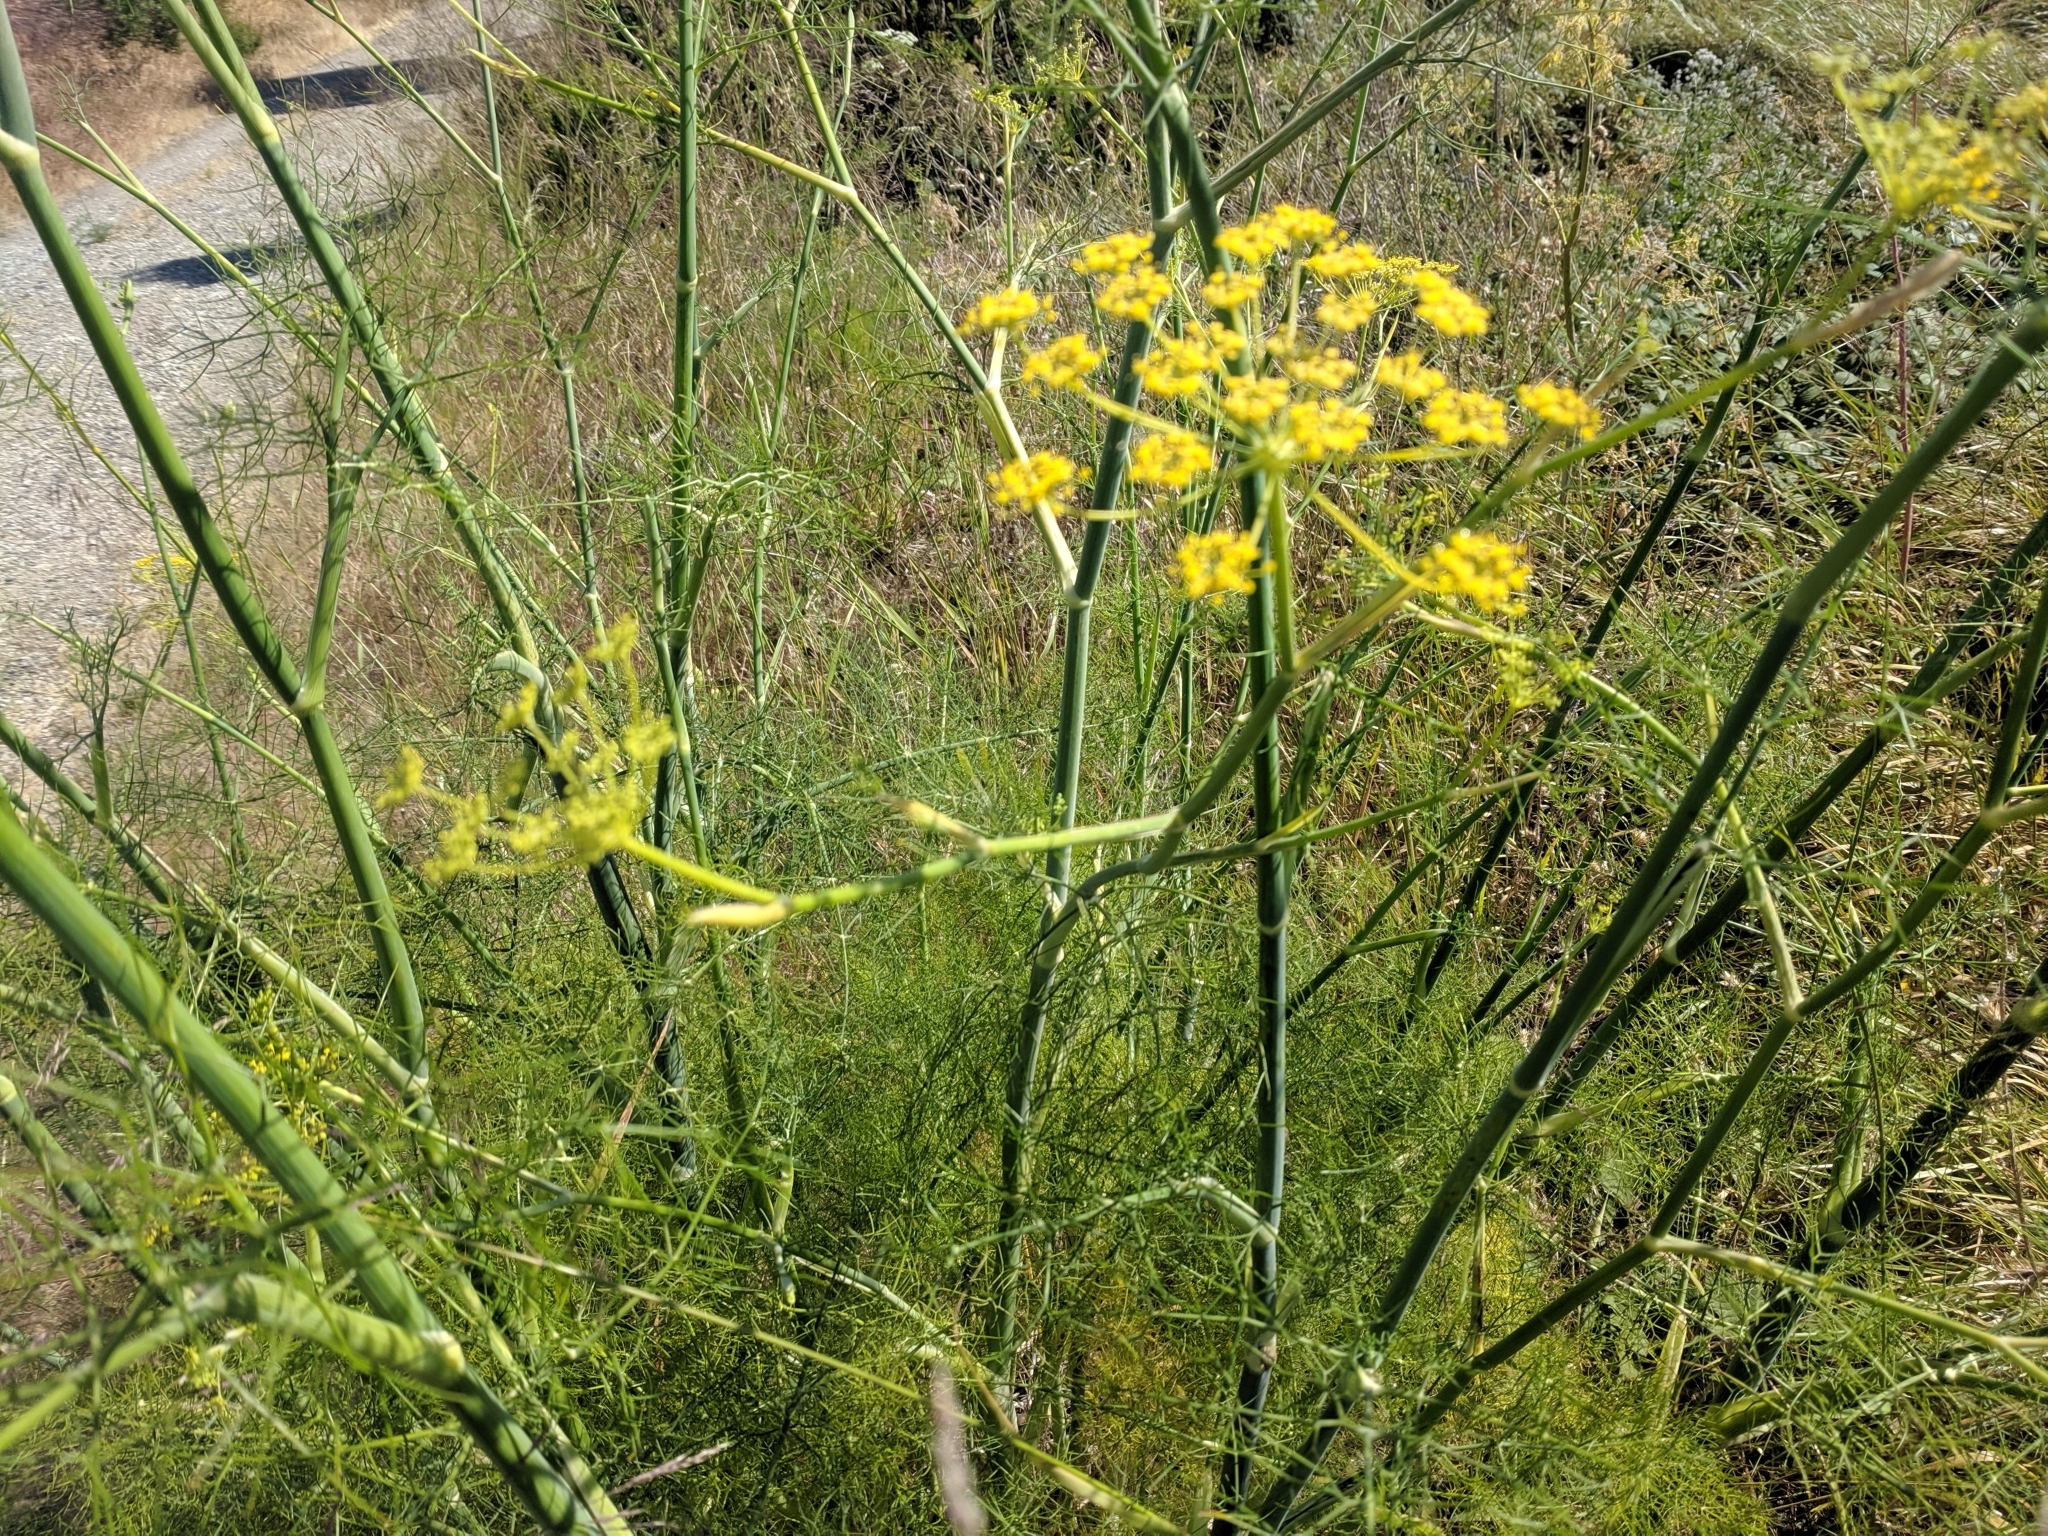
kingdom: Plantae
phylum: Tracheophyta
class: Magnoliopsida
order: Apiales
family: Apiaceae
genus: Foeniculum
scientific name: Foeniculum vulgare
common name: Fennel
